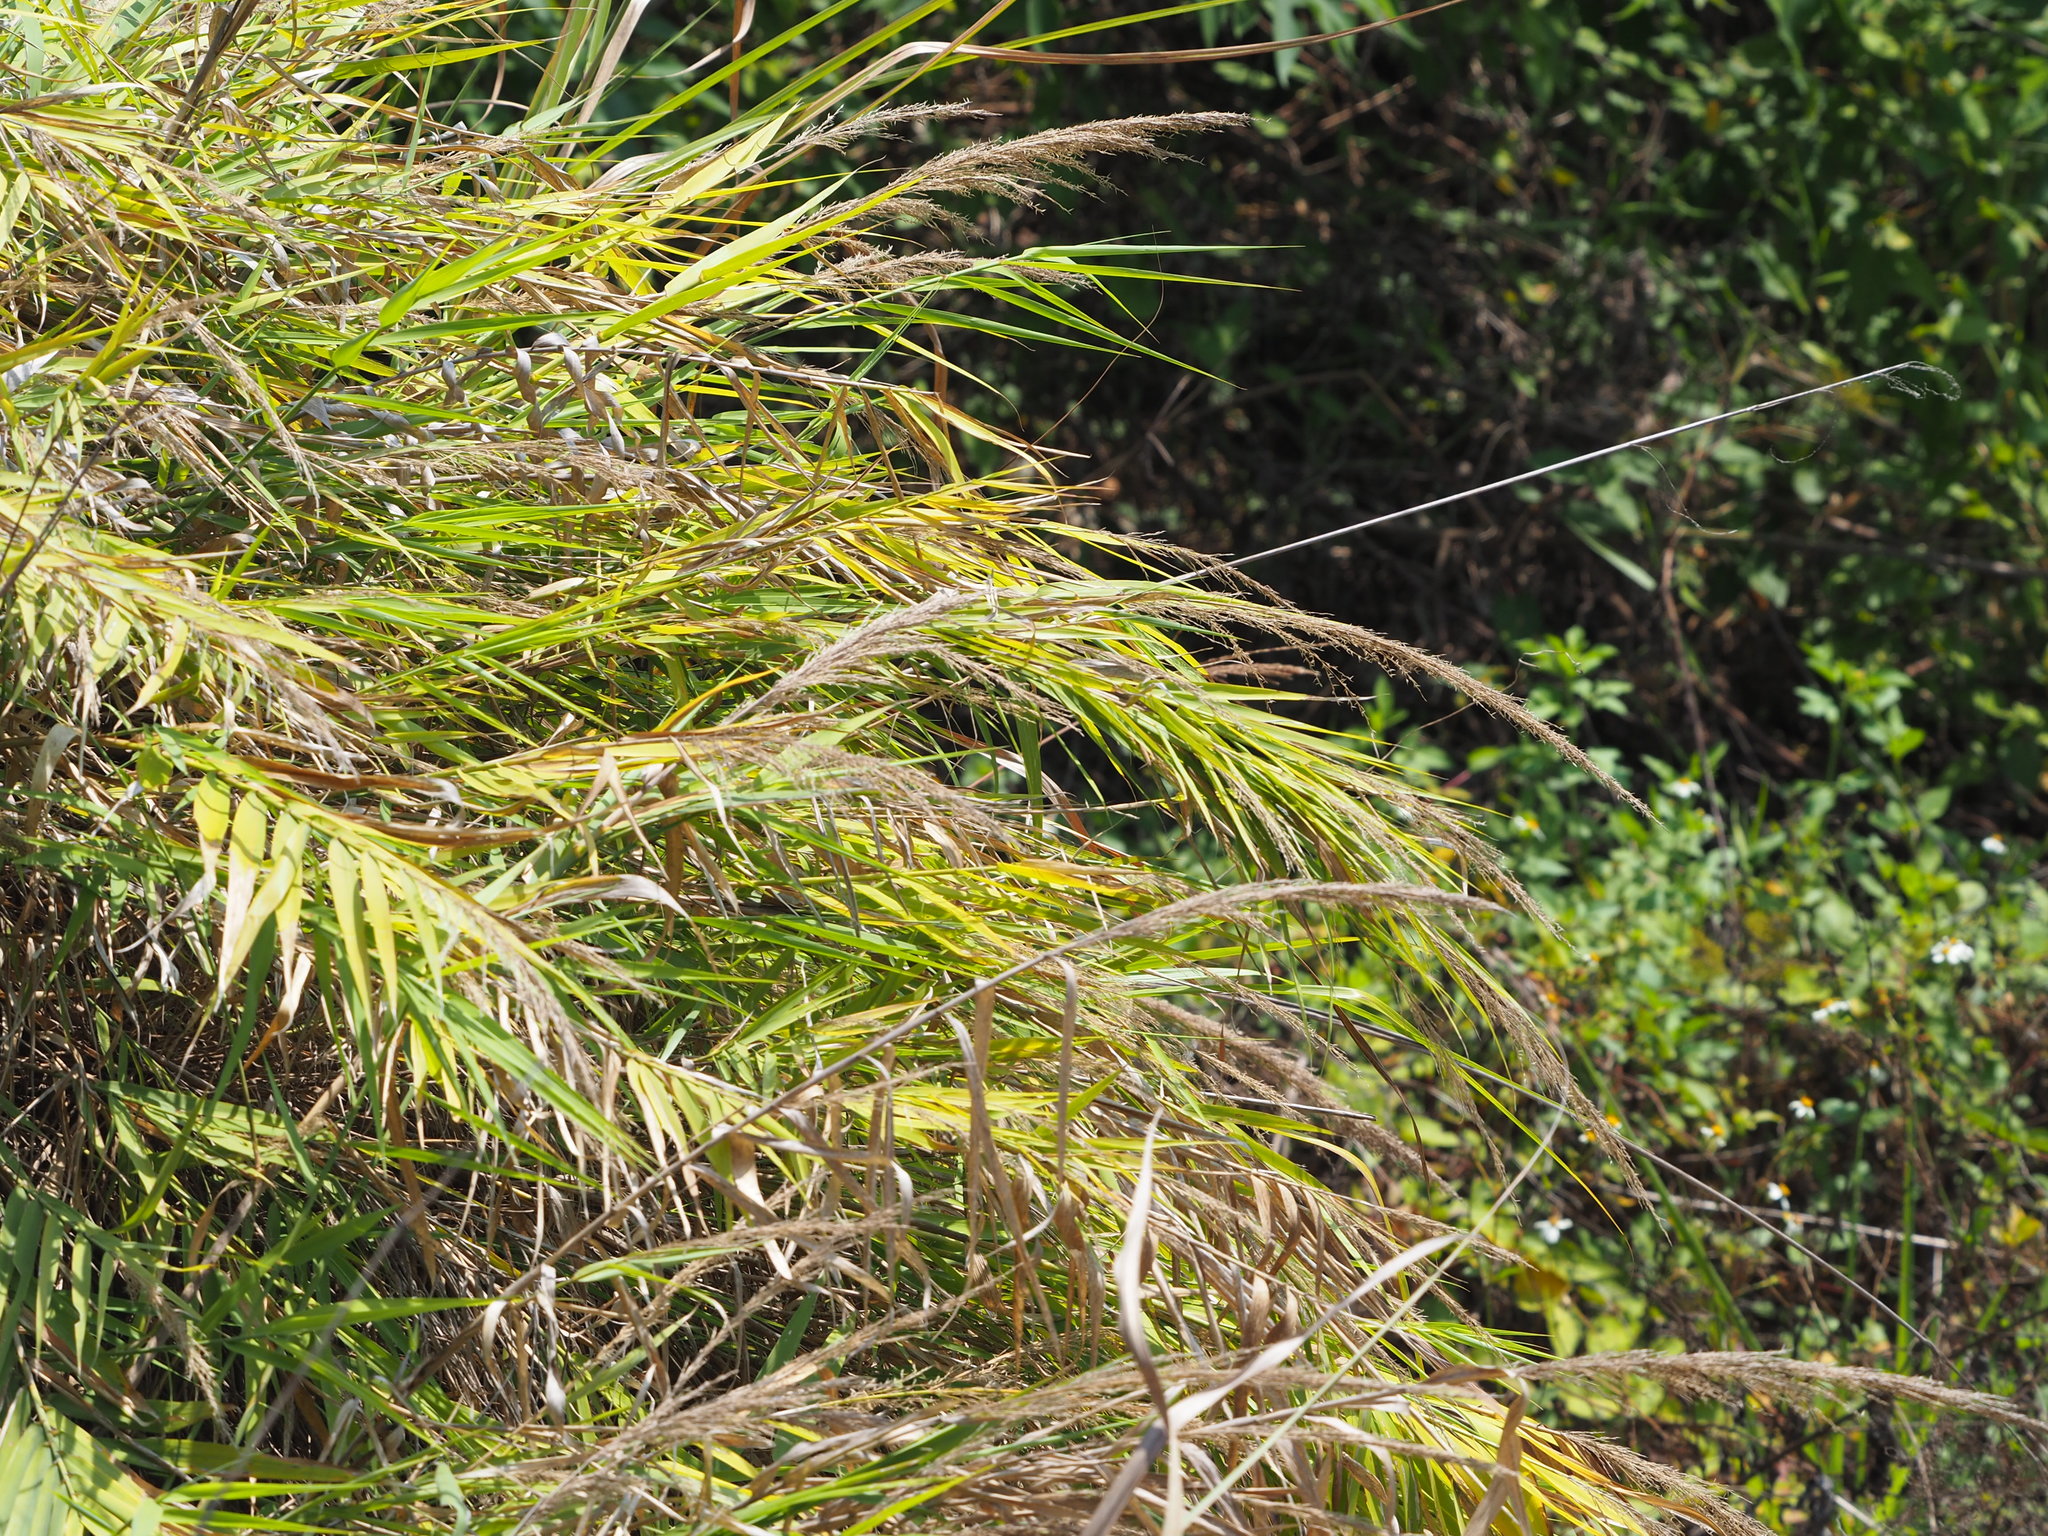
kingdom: Plantae
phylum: Tracheophyta
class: Liliopsida
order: Poales
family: Poaceae
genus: Arundo
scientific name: Arundo formosana
